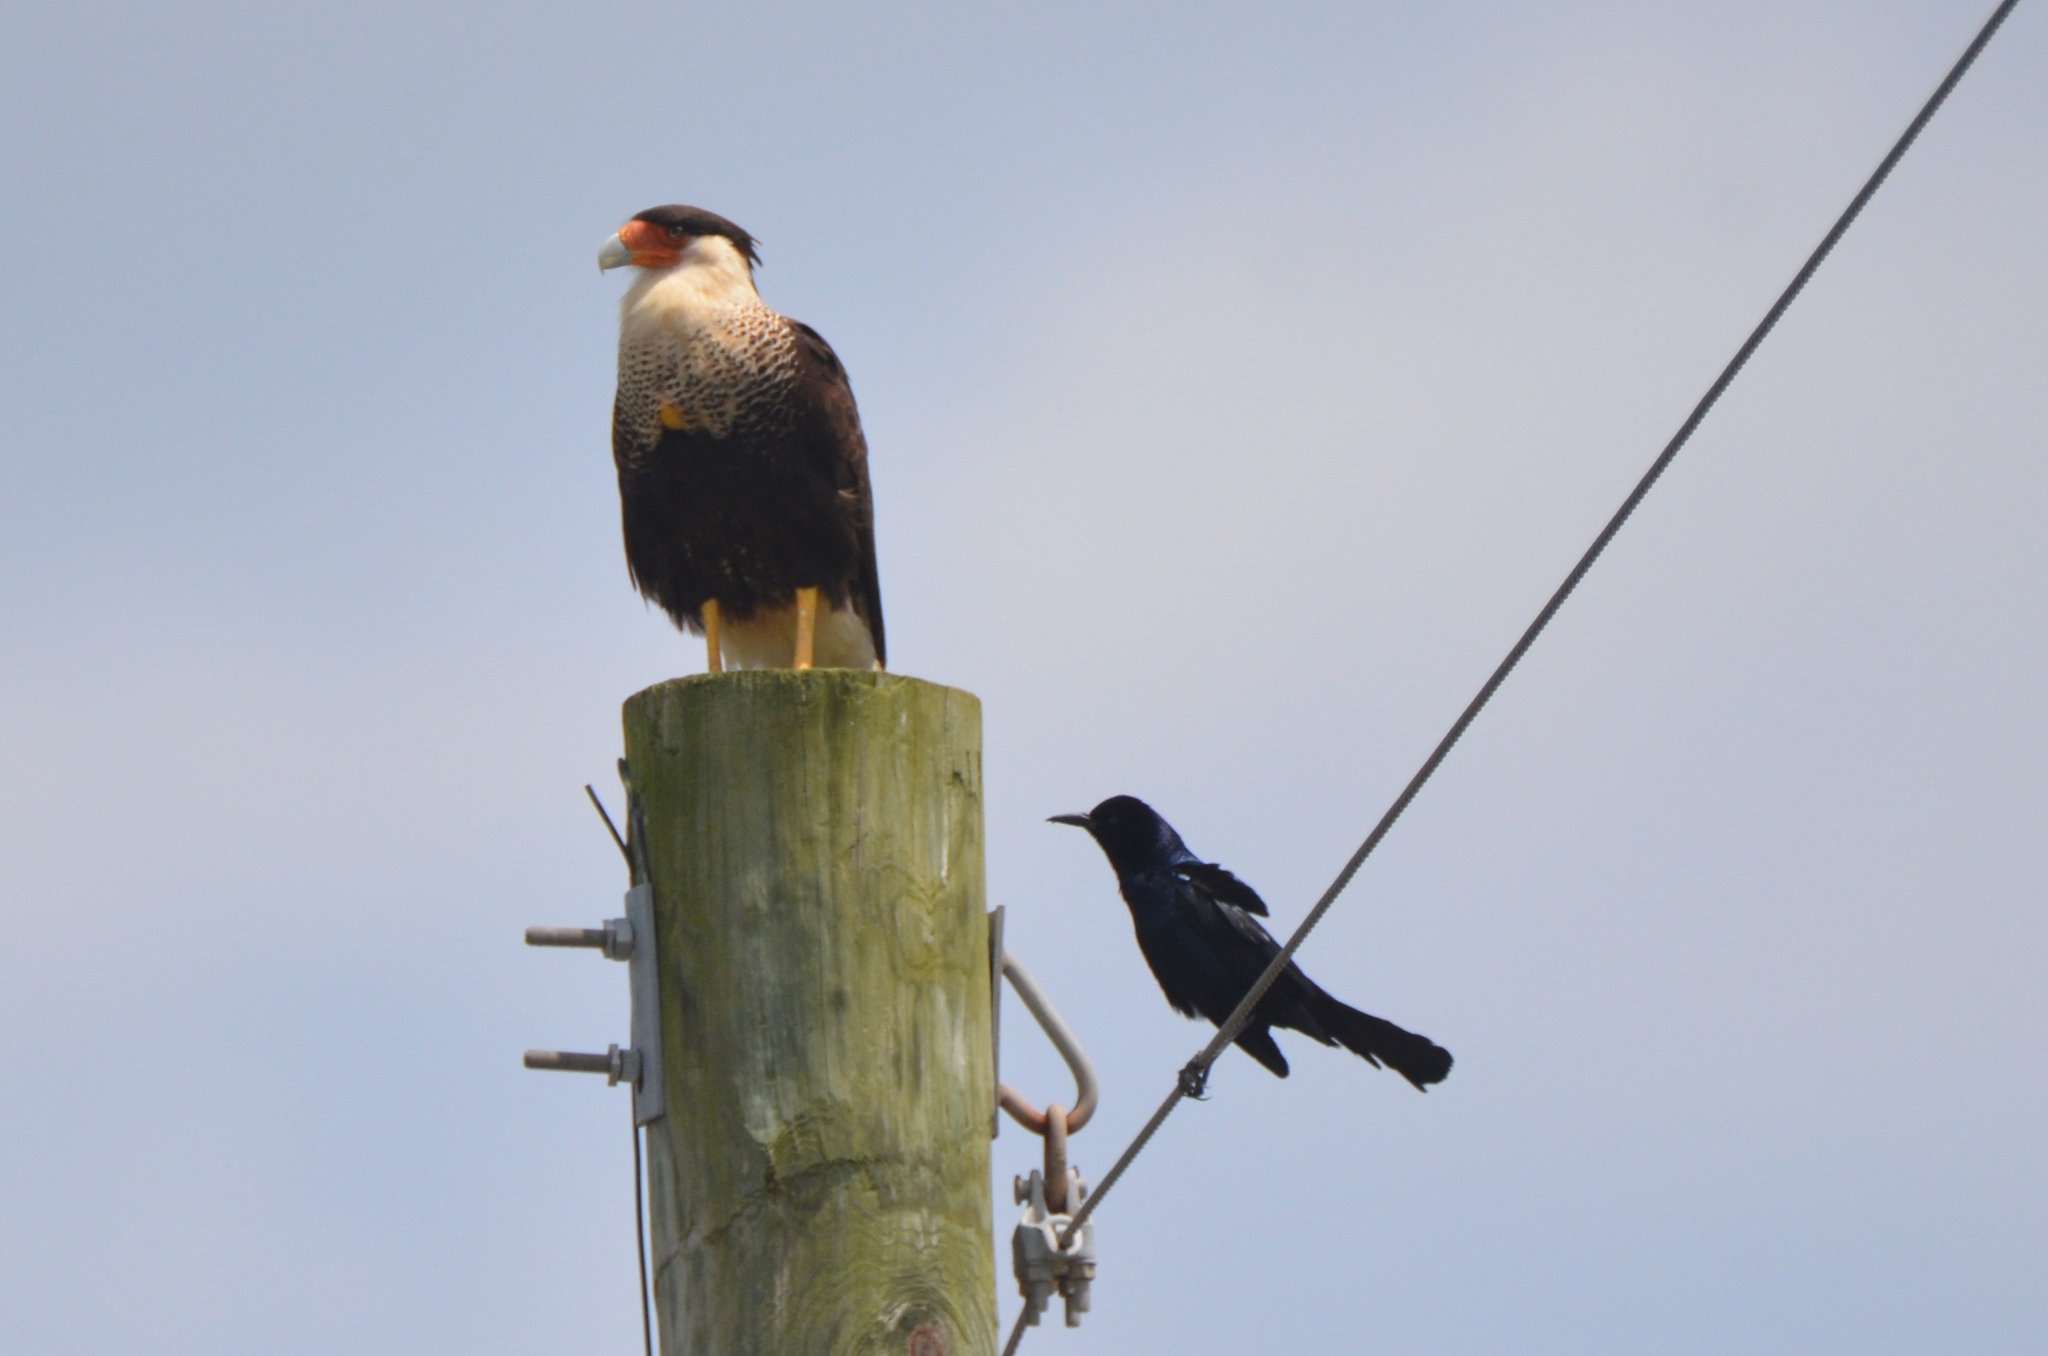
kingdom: Animalia
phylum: Chordata
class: Aves
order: Falconiformes
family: Falconidae
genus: Caracara
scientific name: Caracara plancus
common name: Southern caracara
